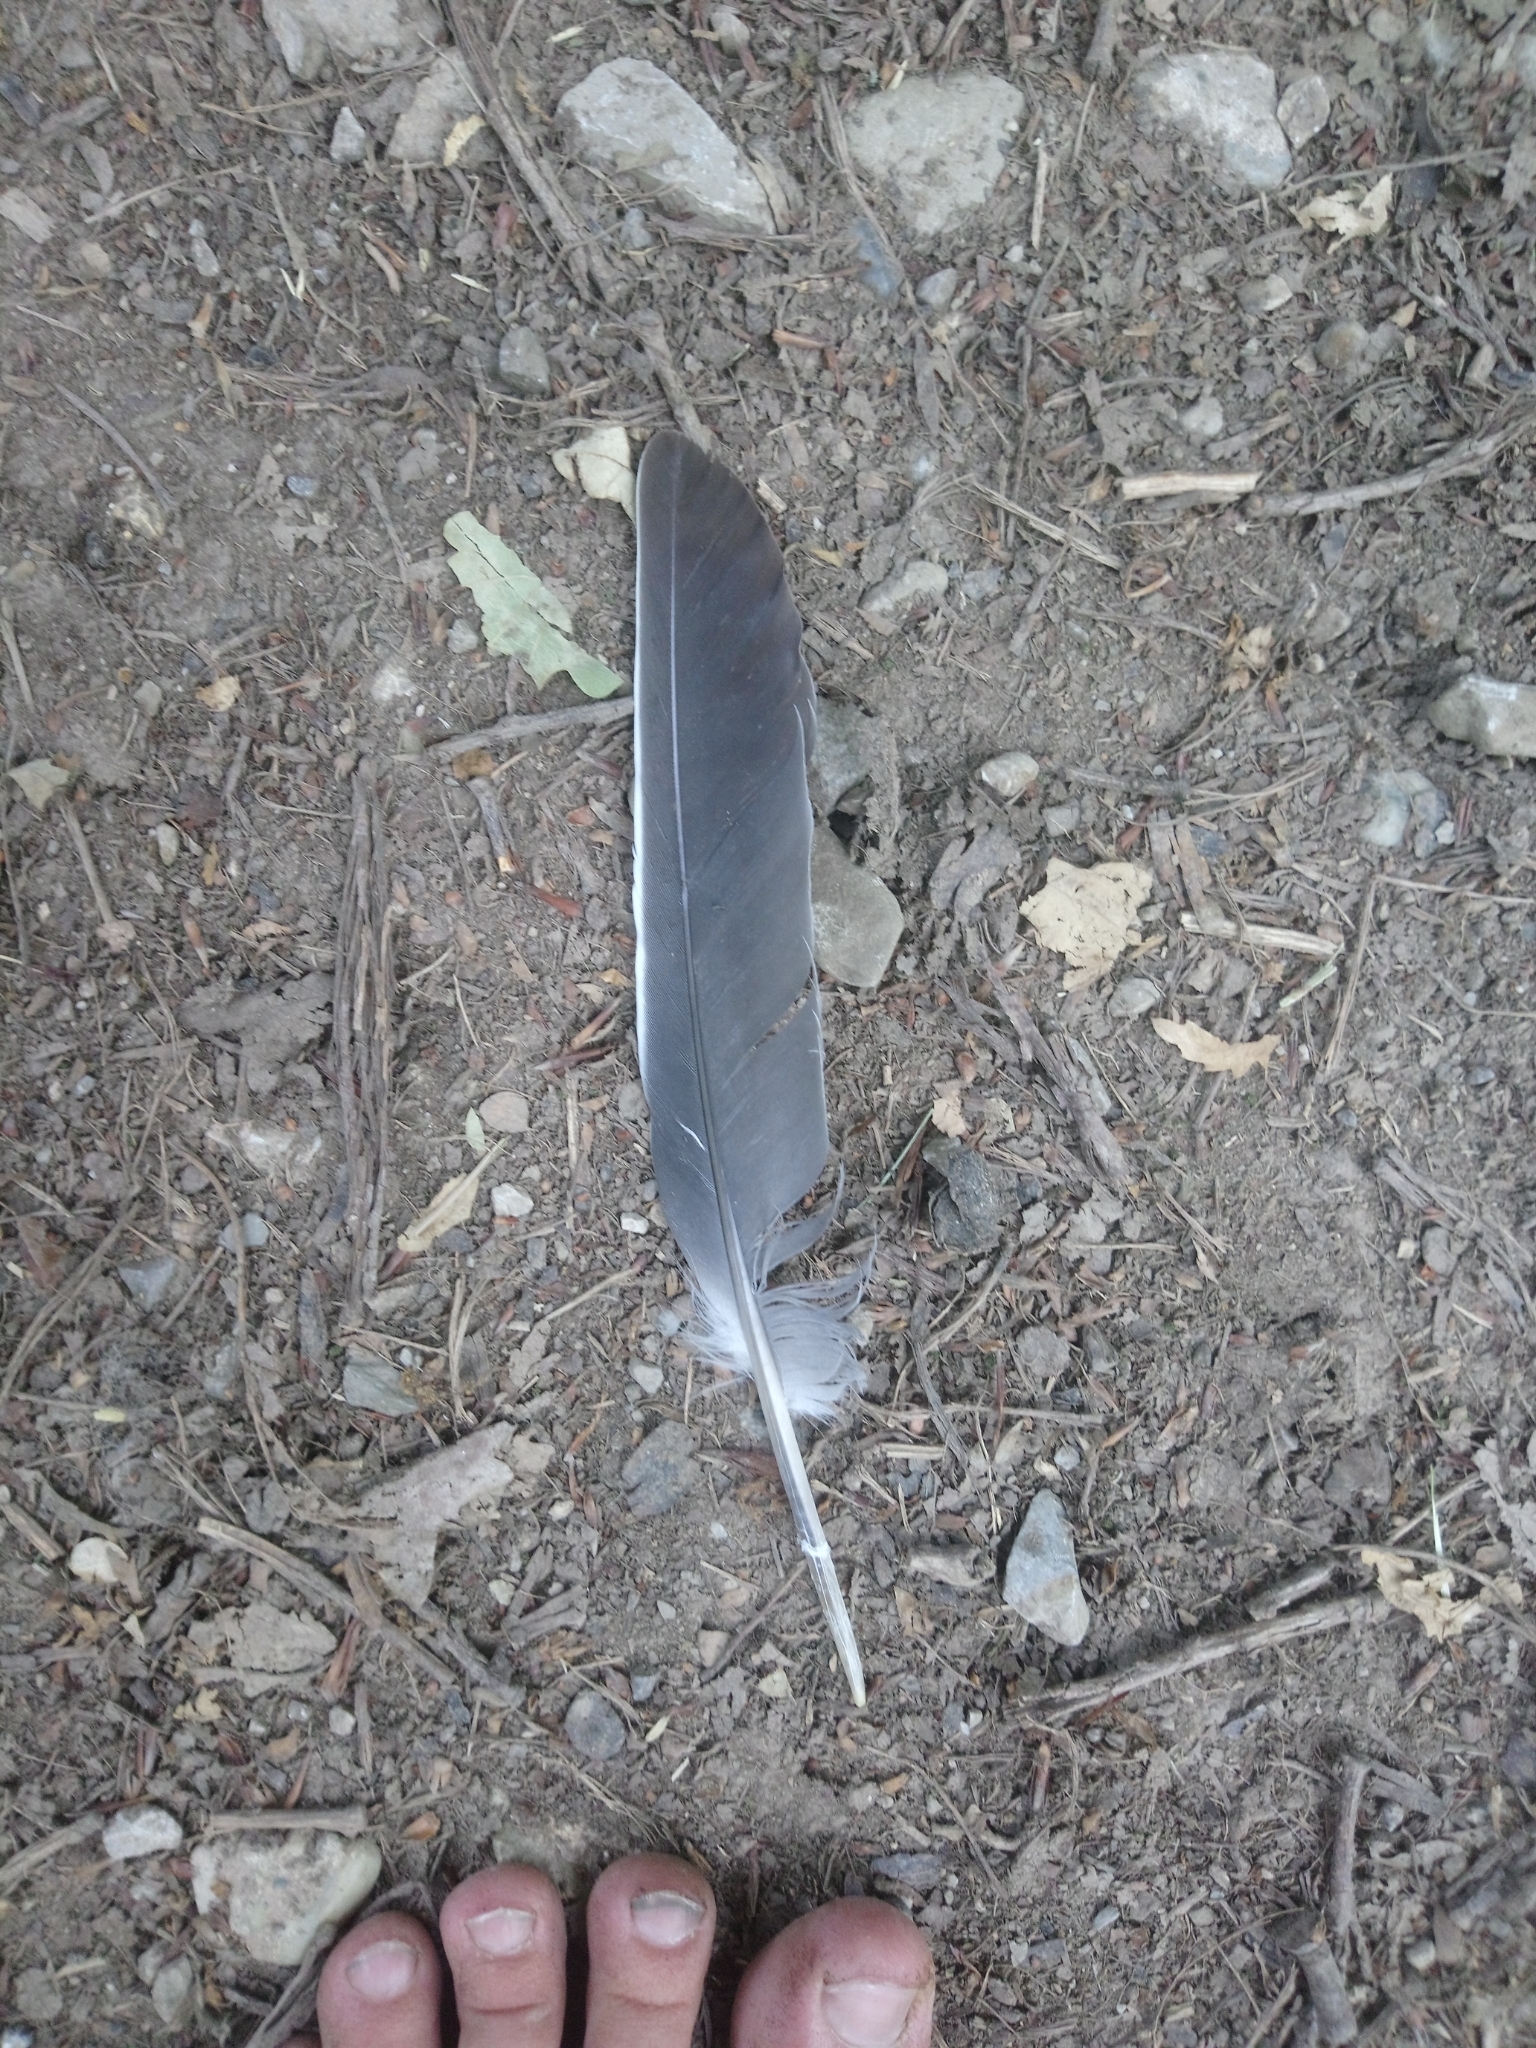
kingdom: Animalia
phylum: Chordata
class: Aves
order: Columbiformes
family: Columbidae
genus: Columba
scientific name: Columba palumbus
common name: Common wood pigeon
